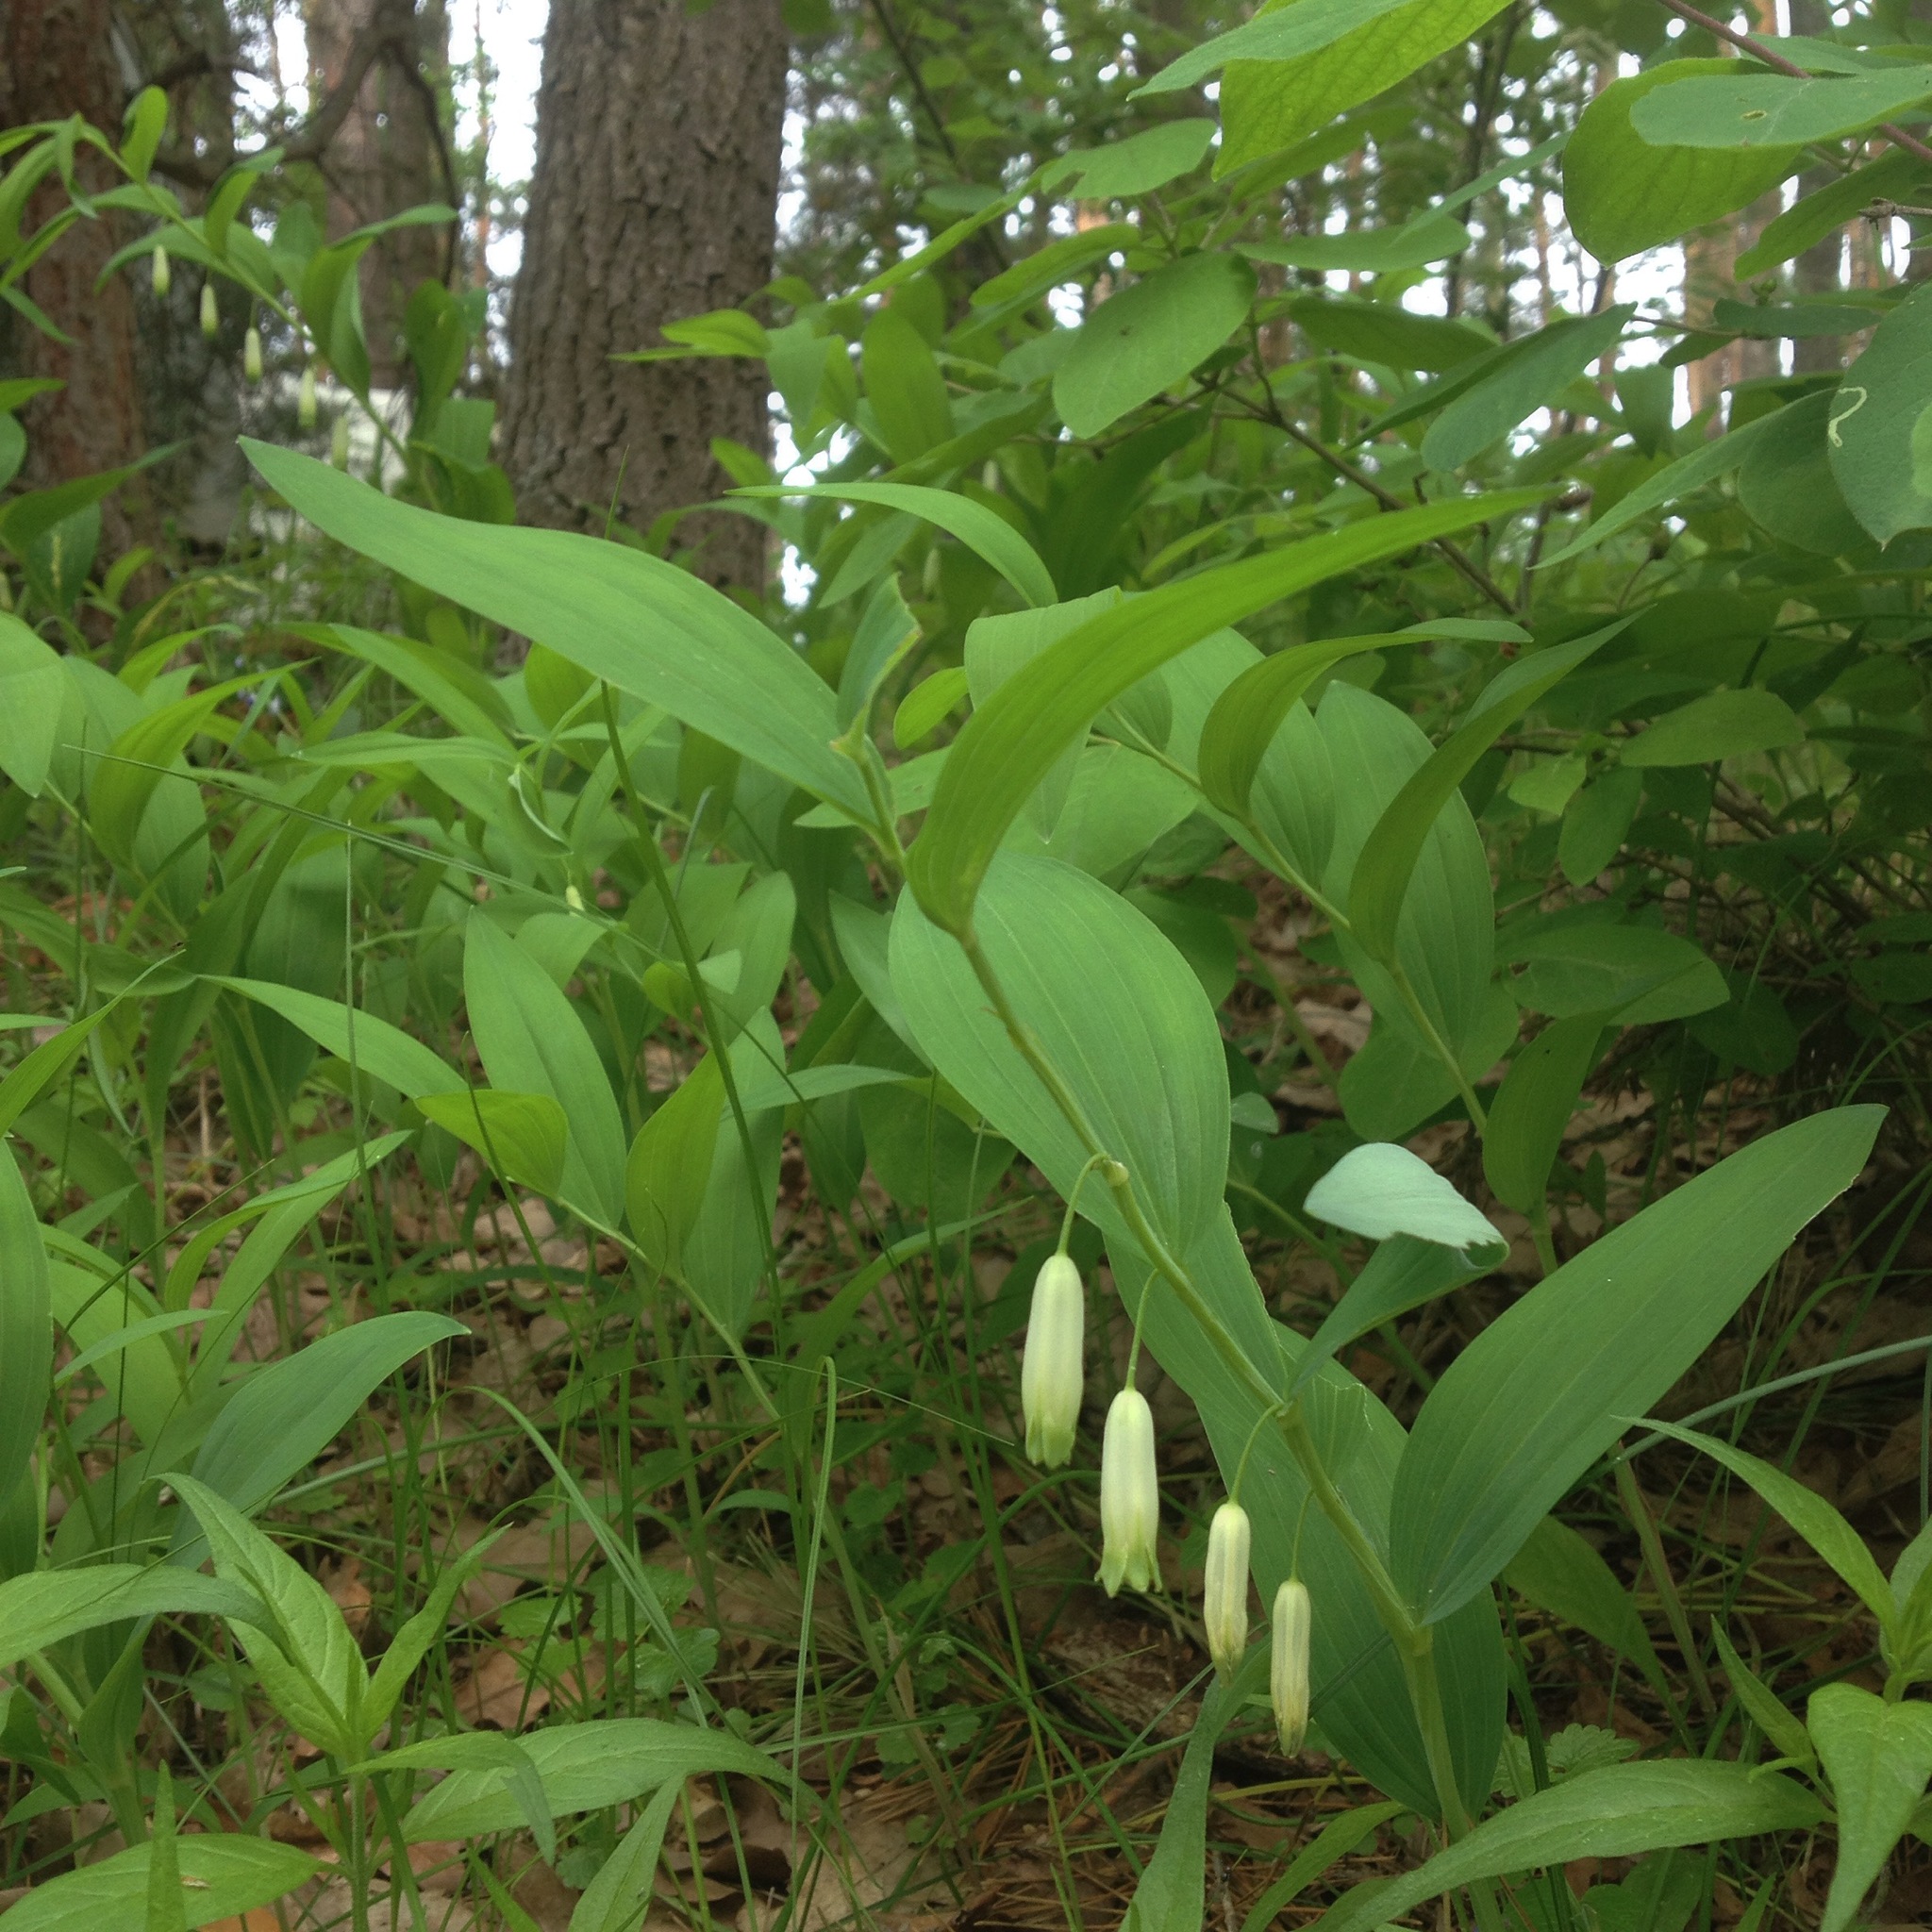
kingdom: Plantae
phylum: Tracheophyta
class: Liliopsida
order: Asparagales
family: Asparagaceae
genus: Polygonatum
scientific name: Polygonatum odoratum
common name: Angular solomon's-seal
